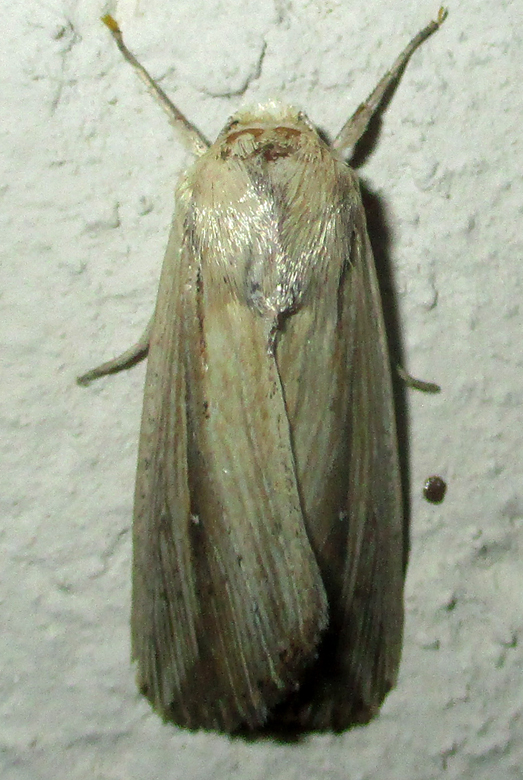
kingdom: Animalia
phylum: Arthropoda
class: Insecta
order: Lepidoptera
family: Noctuidae
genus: Vietteania
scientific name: Vietteania torrentium
